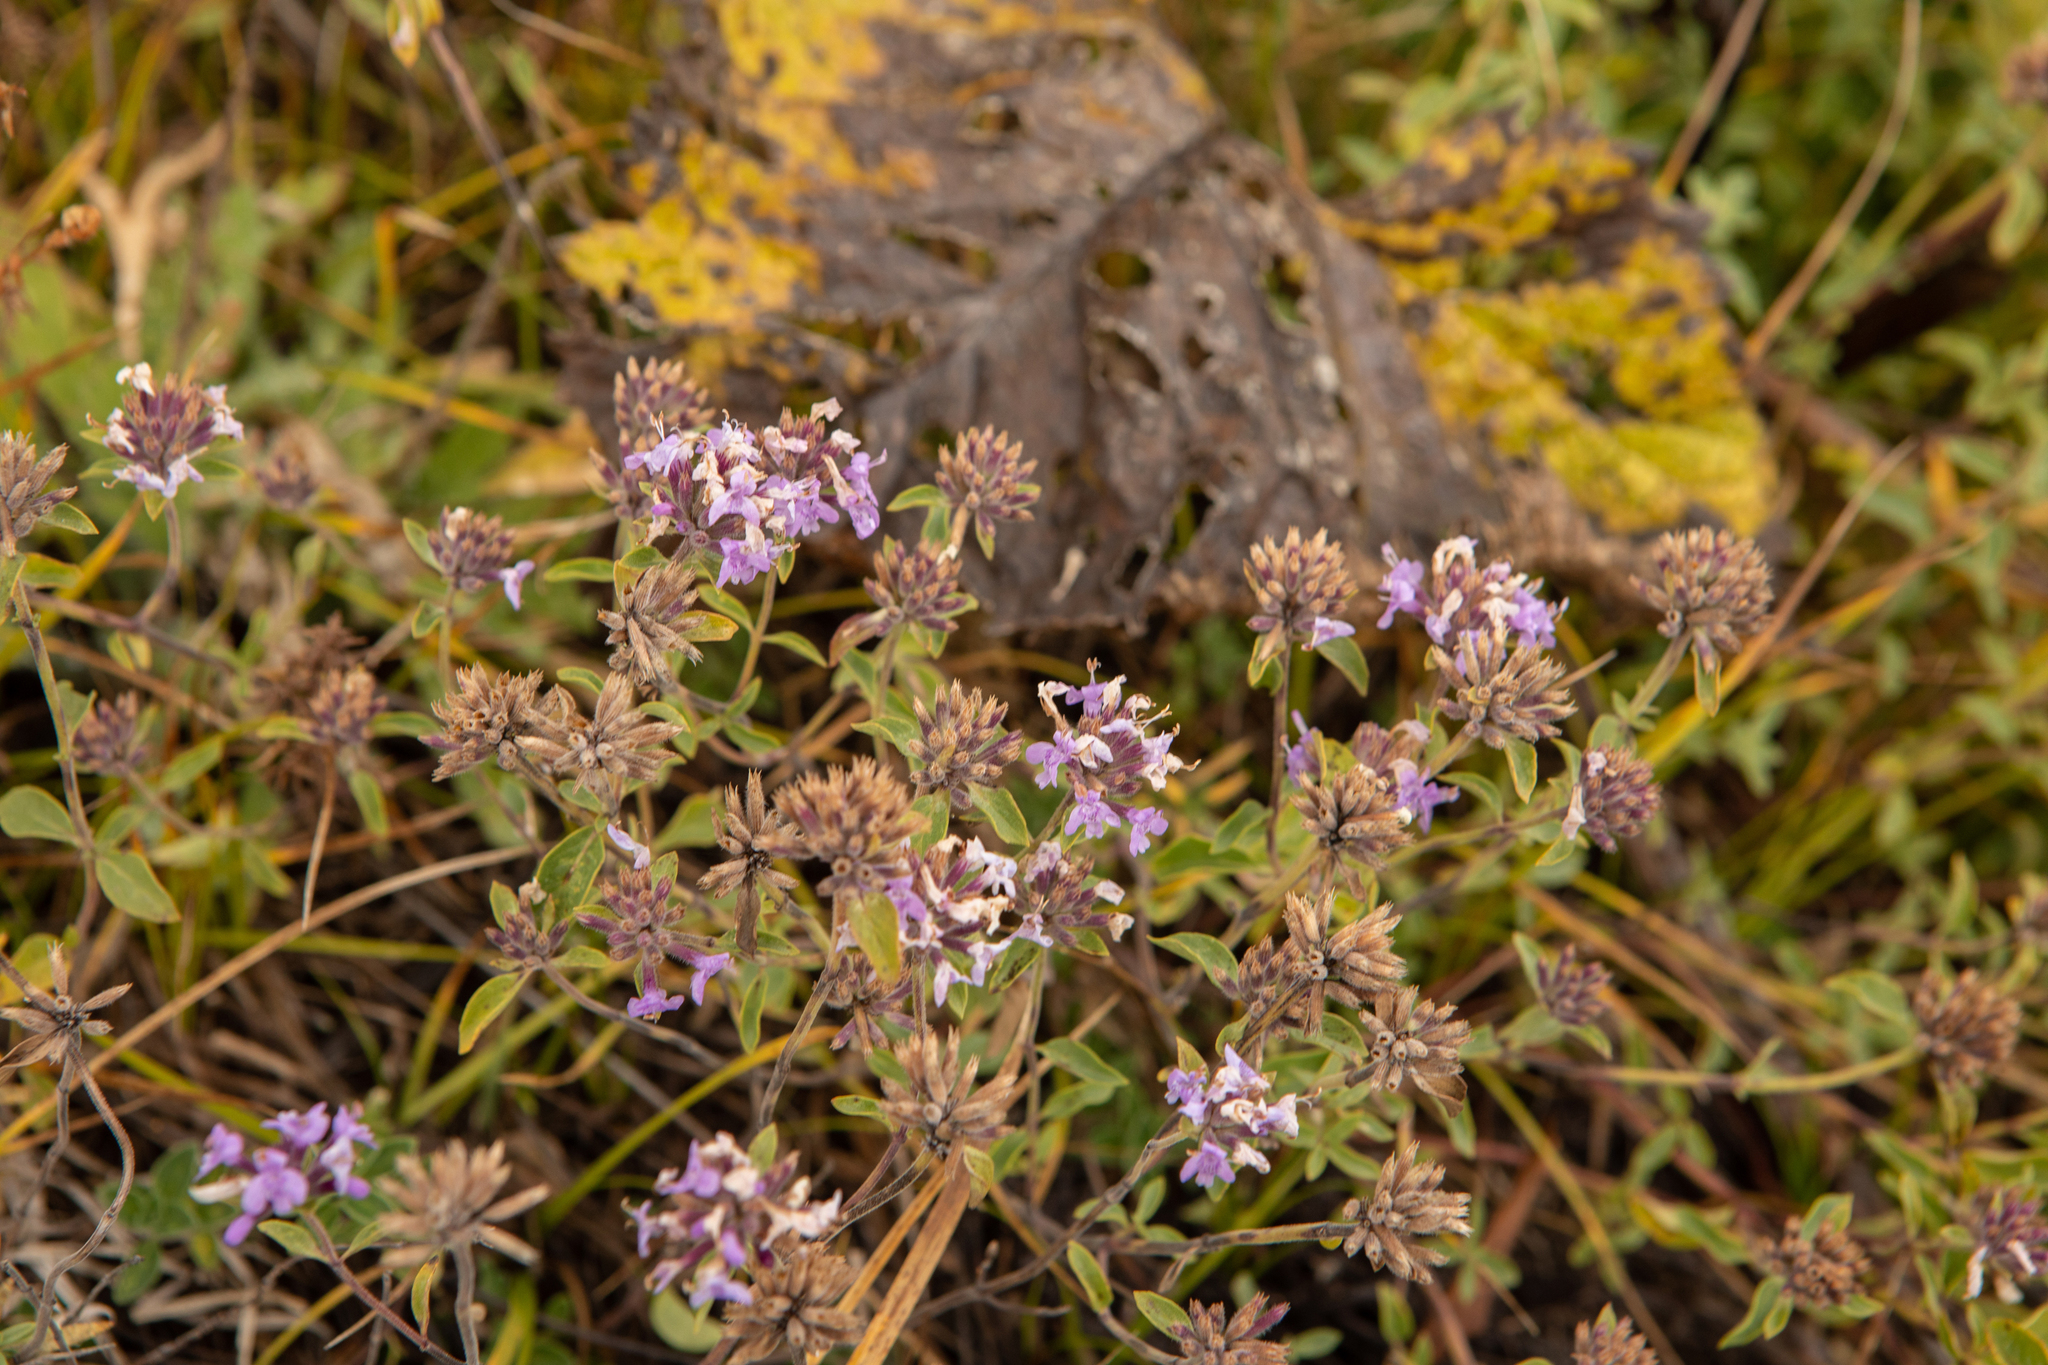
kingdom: Plantae
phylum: Tracheophyta
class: Magnoliopsida
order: Lamiales
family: Lamiaceae
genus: Ziziphora
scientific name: Ziziphora clinopodioides
